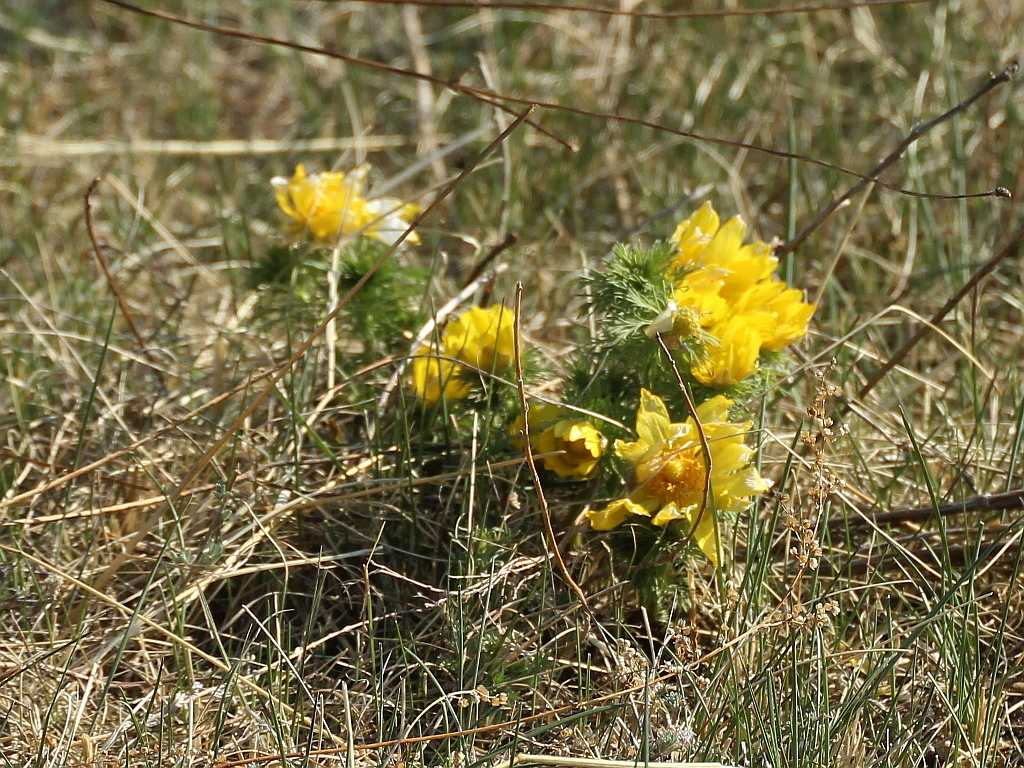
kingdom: Plantae
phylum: Tracheophyta
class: Magnoliopsida
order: Ranunculales
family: Ranunculaceae
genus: Adonis
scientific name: Adonis vernalis
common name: Yellow pheasants-eye
